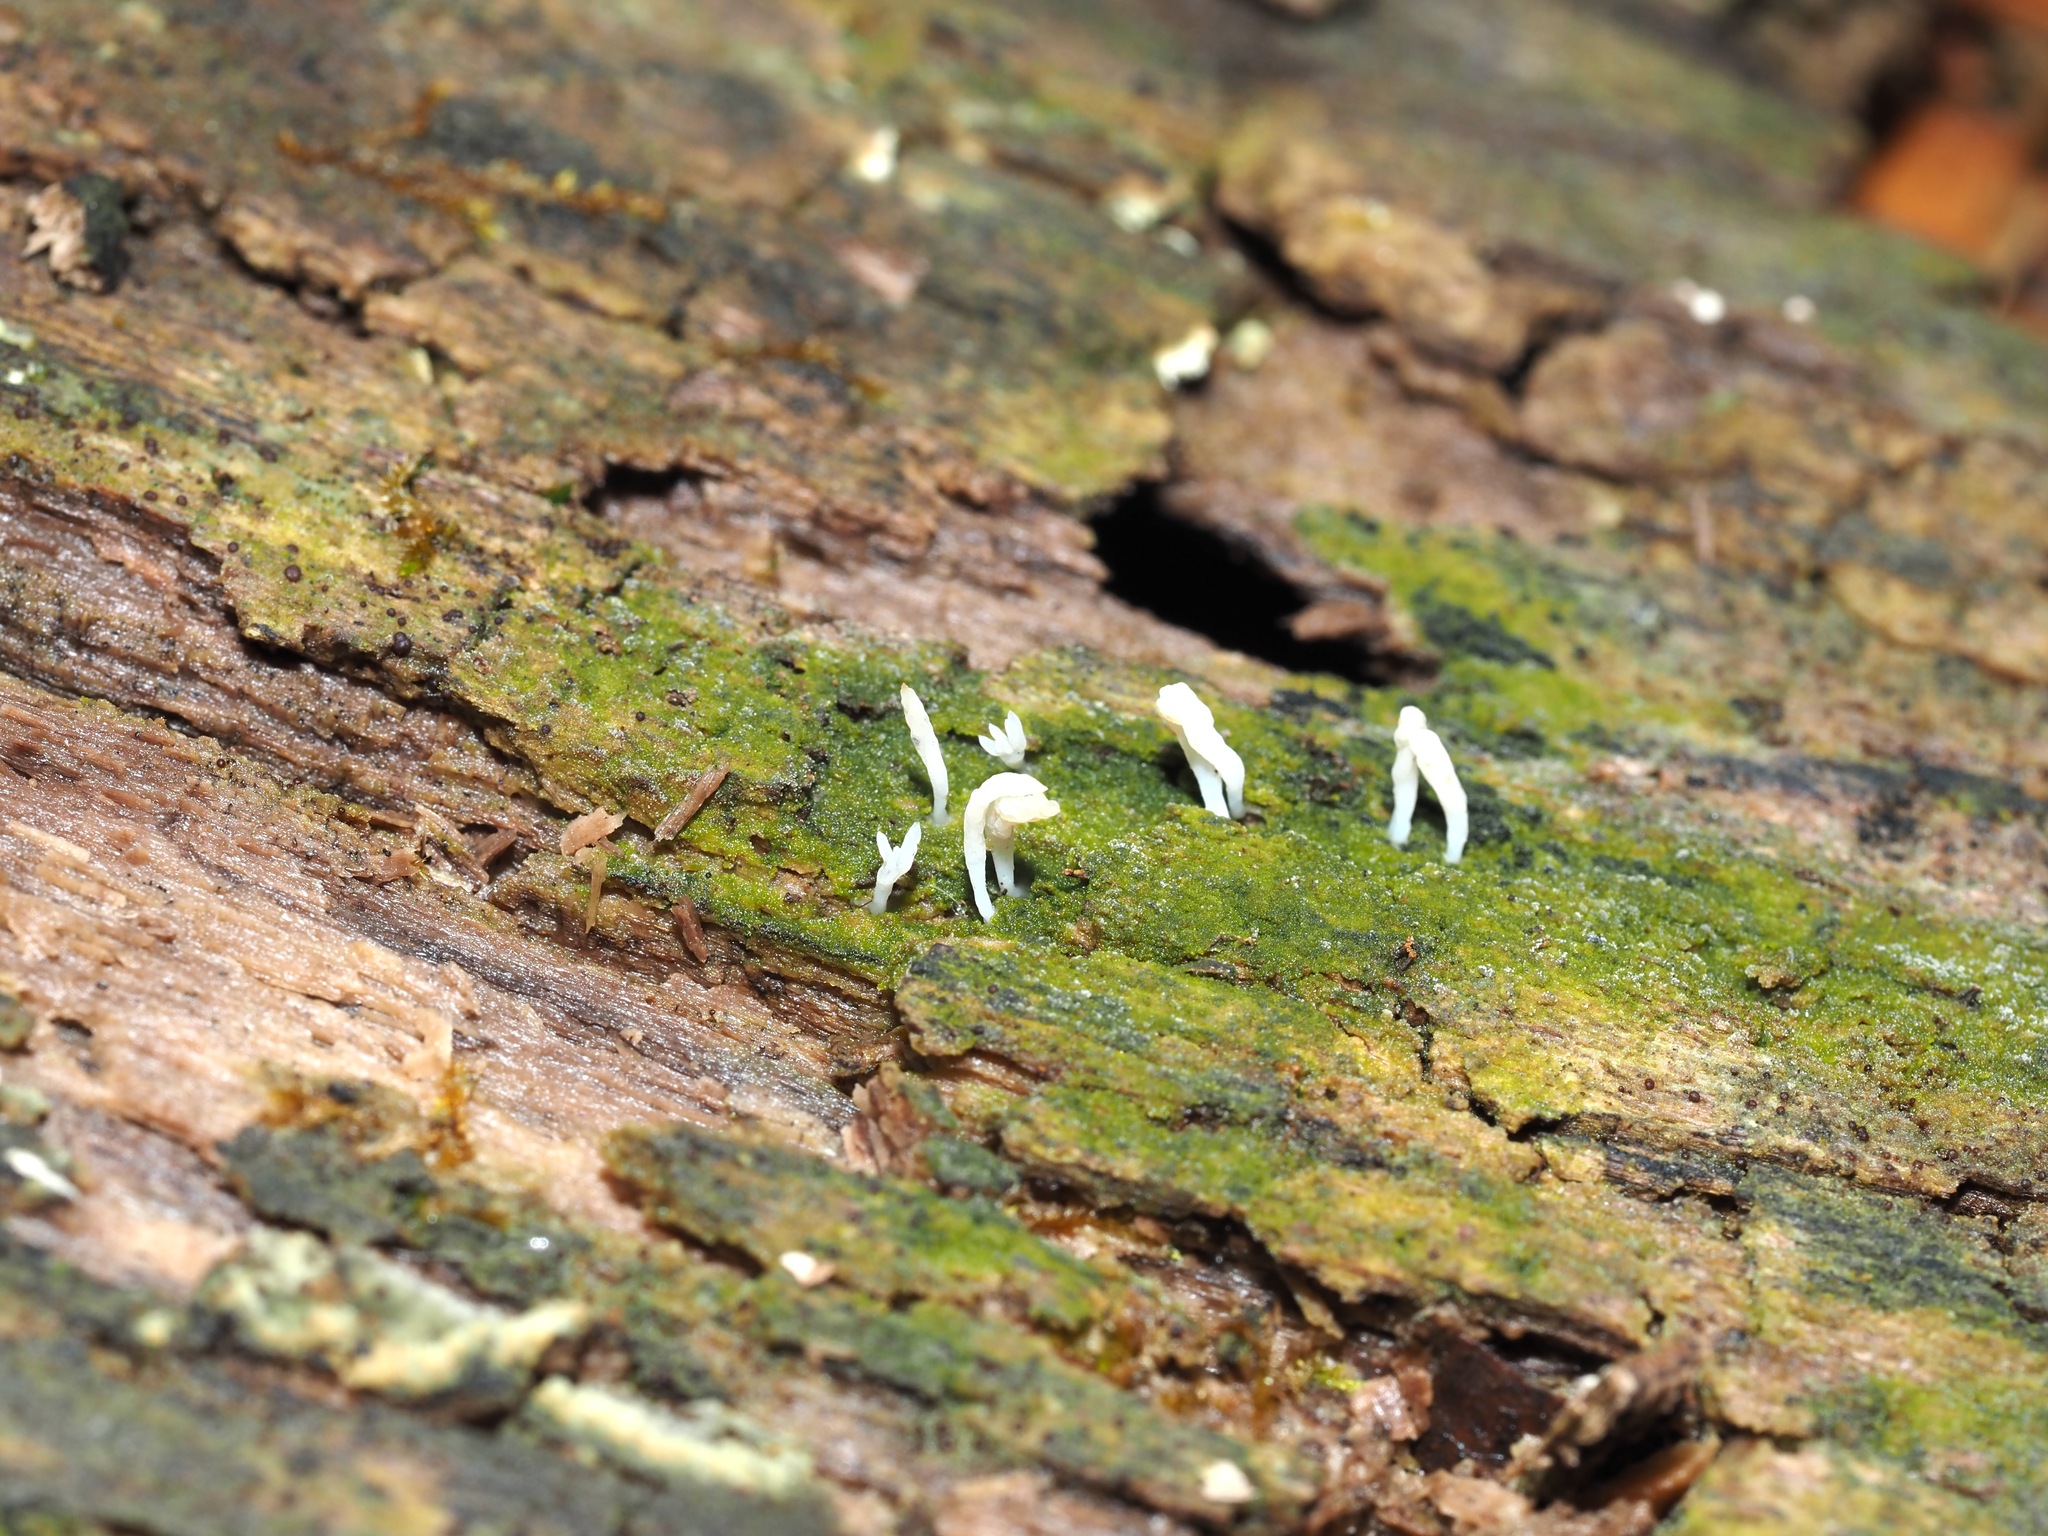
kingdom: Fungi
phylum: Basidiomycota
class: Agaricomycetes
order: Cantharellales
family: Hydnaceae
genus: Multiclavula
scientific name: Multiclavula mucida
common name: White green-algae coral
